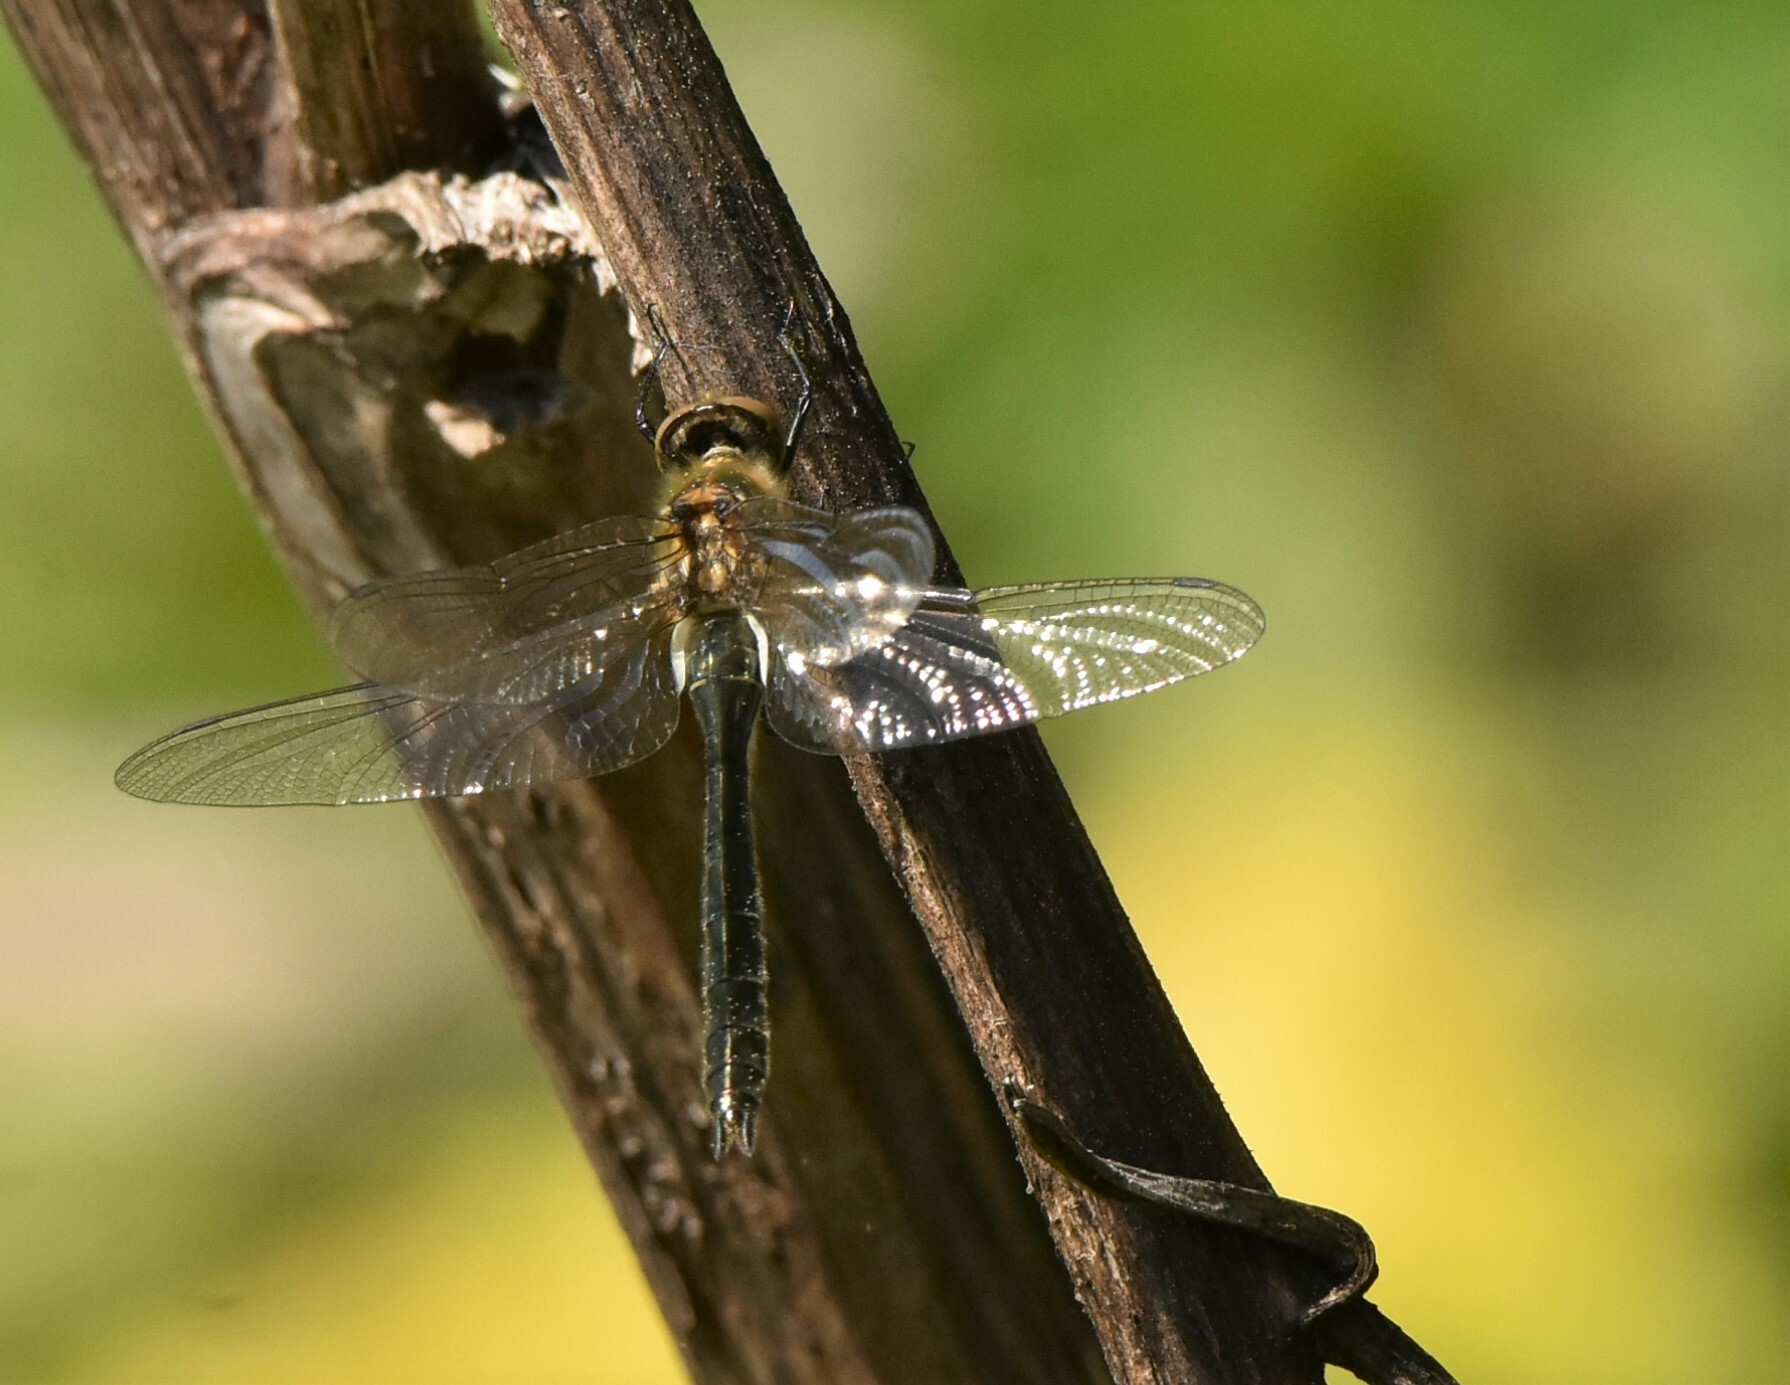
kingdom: Animalia
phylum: Arthropoda
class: Insecta
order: Odonata
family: Corduliidae
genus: Cordulia
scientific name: Cordulia aenea
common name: Downy emerald
